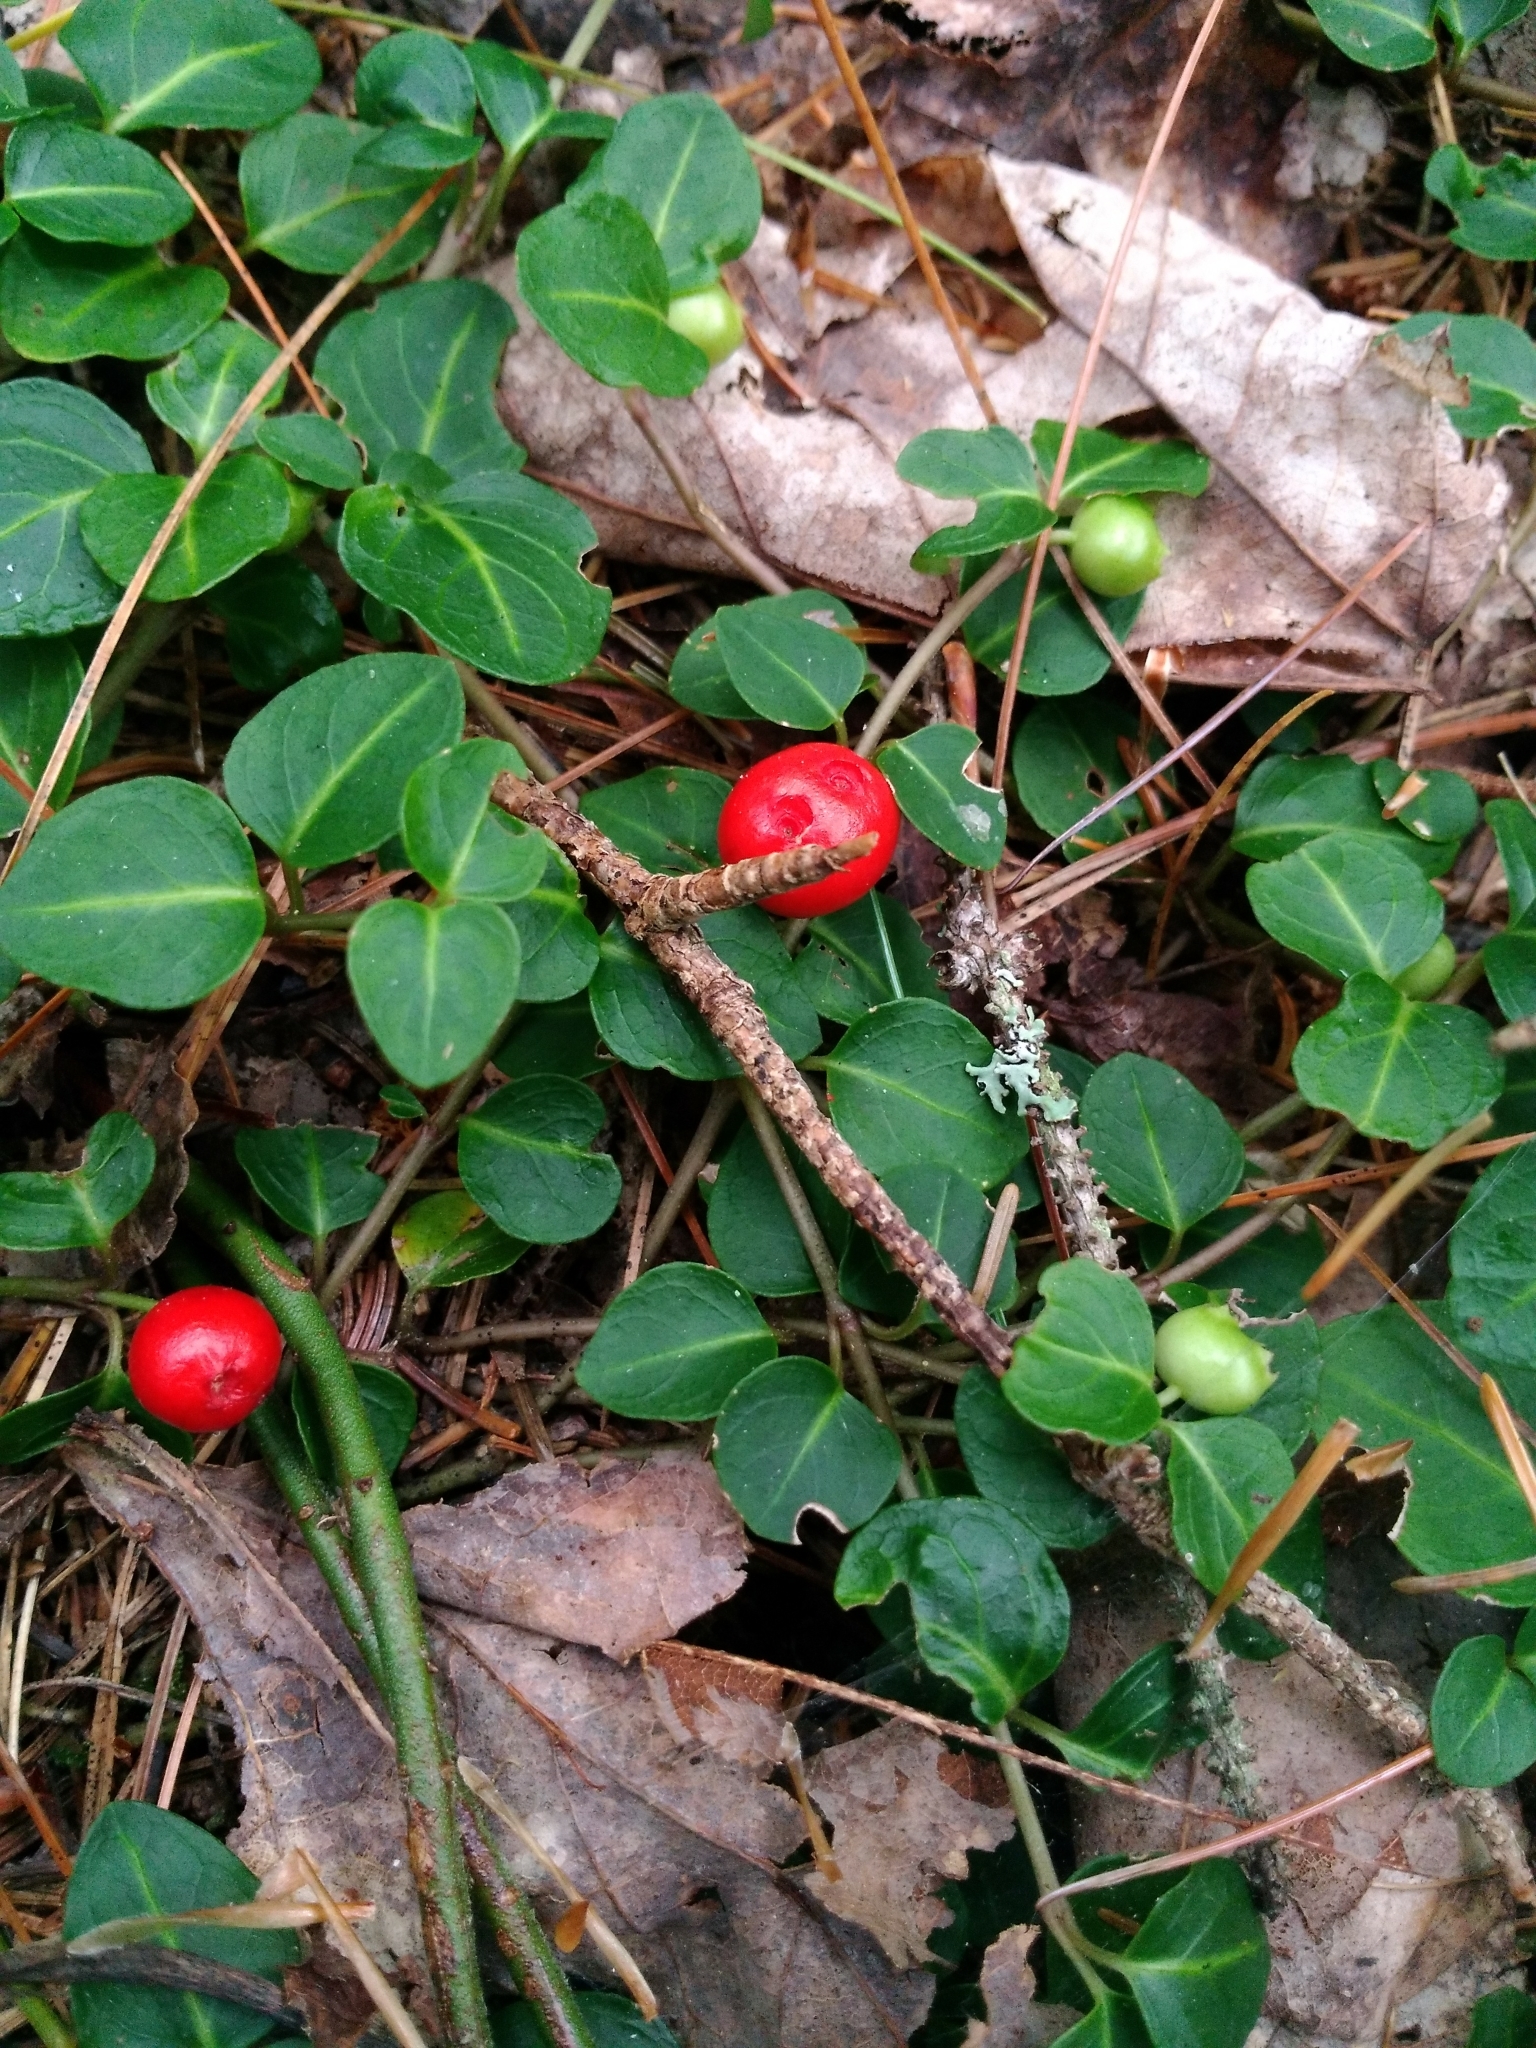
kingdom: Plantae
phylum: Tracheophyta
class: Magnoliopsida
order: Gentianales
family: Rubiaceae
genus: Mitchella
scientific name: Mitchella repens
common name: Partridge-berry
